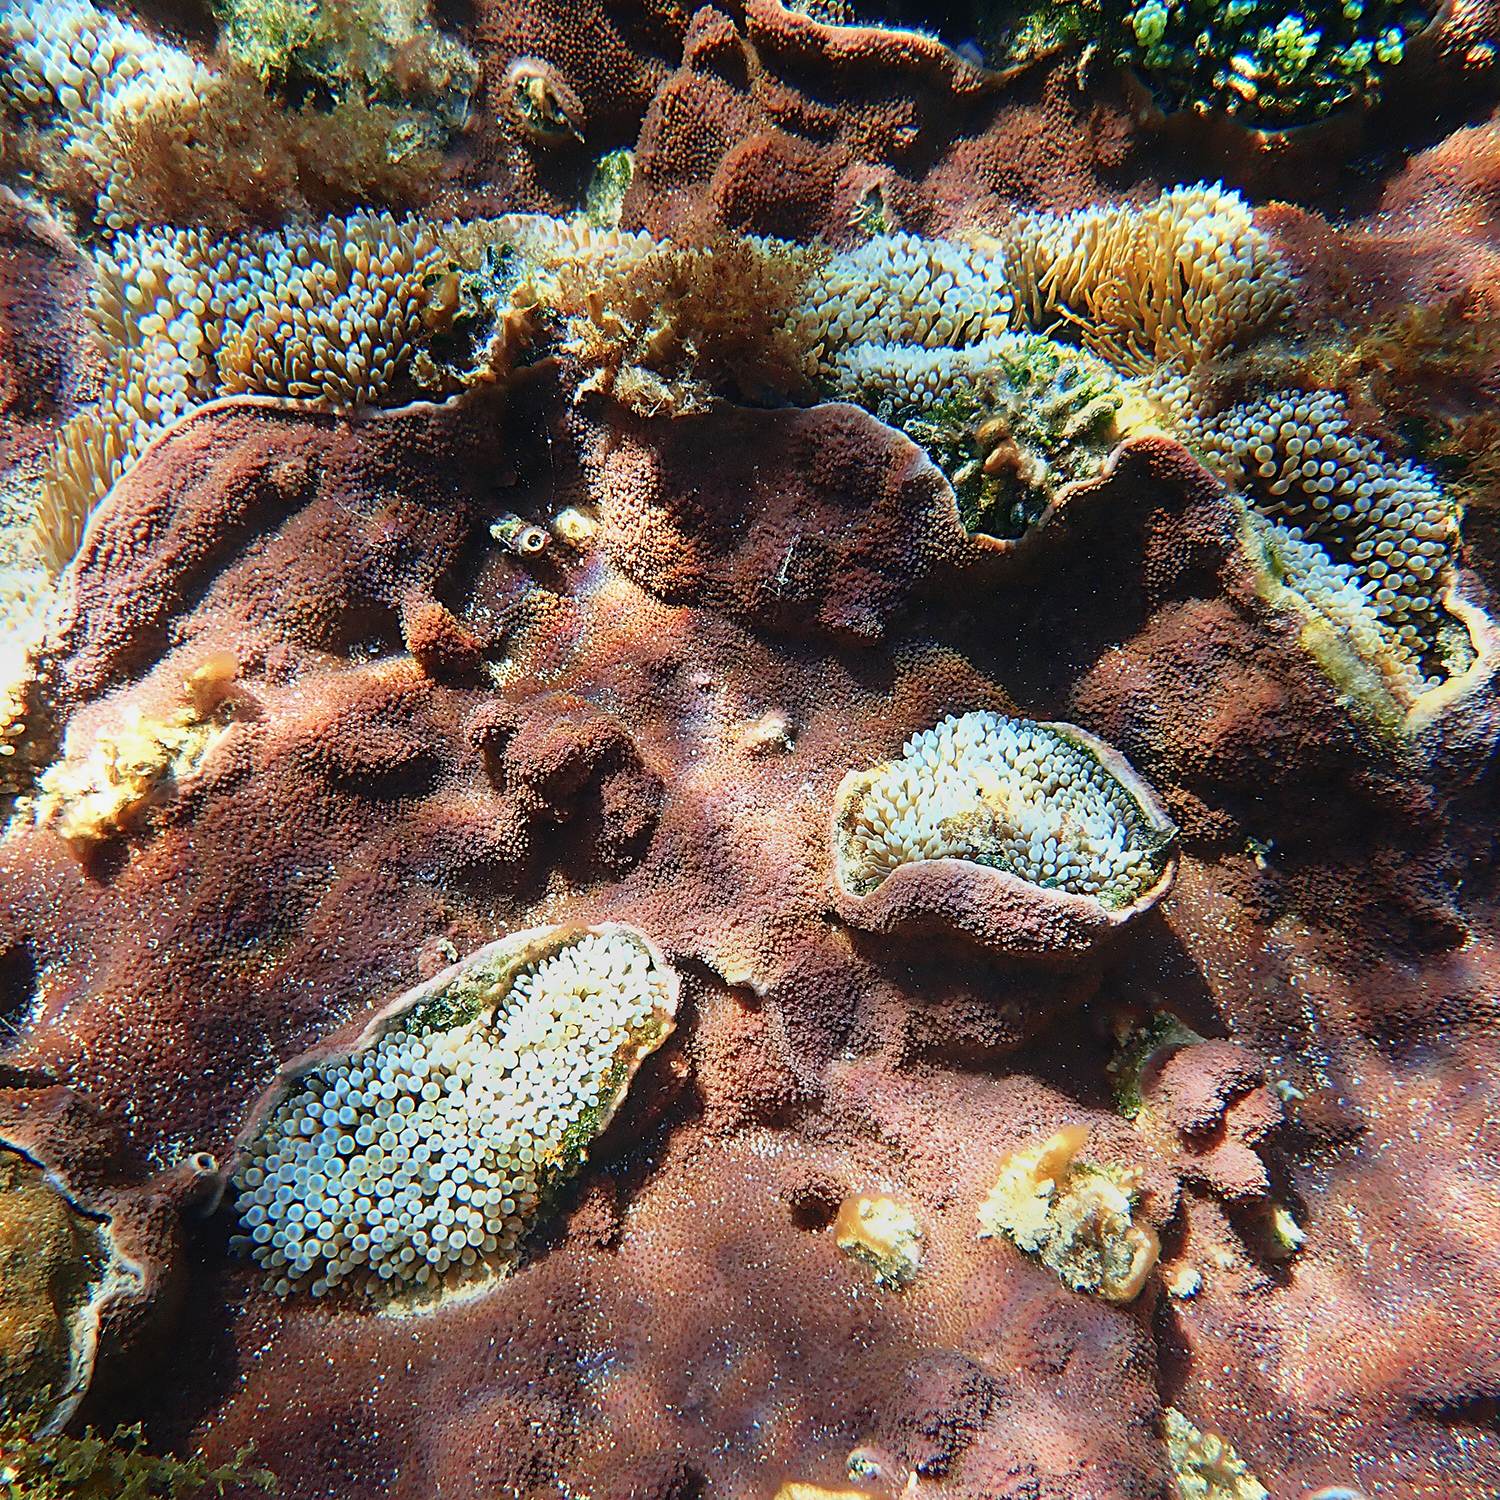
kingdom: Animalia
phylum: Cnidaria
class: Anthozoa
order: Actiniaria
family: Actiniidae
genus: Entacmaea
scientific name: Entacmaea quadricolor
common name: Bulb tentacle sea anemone
